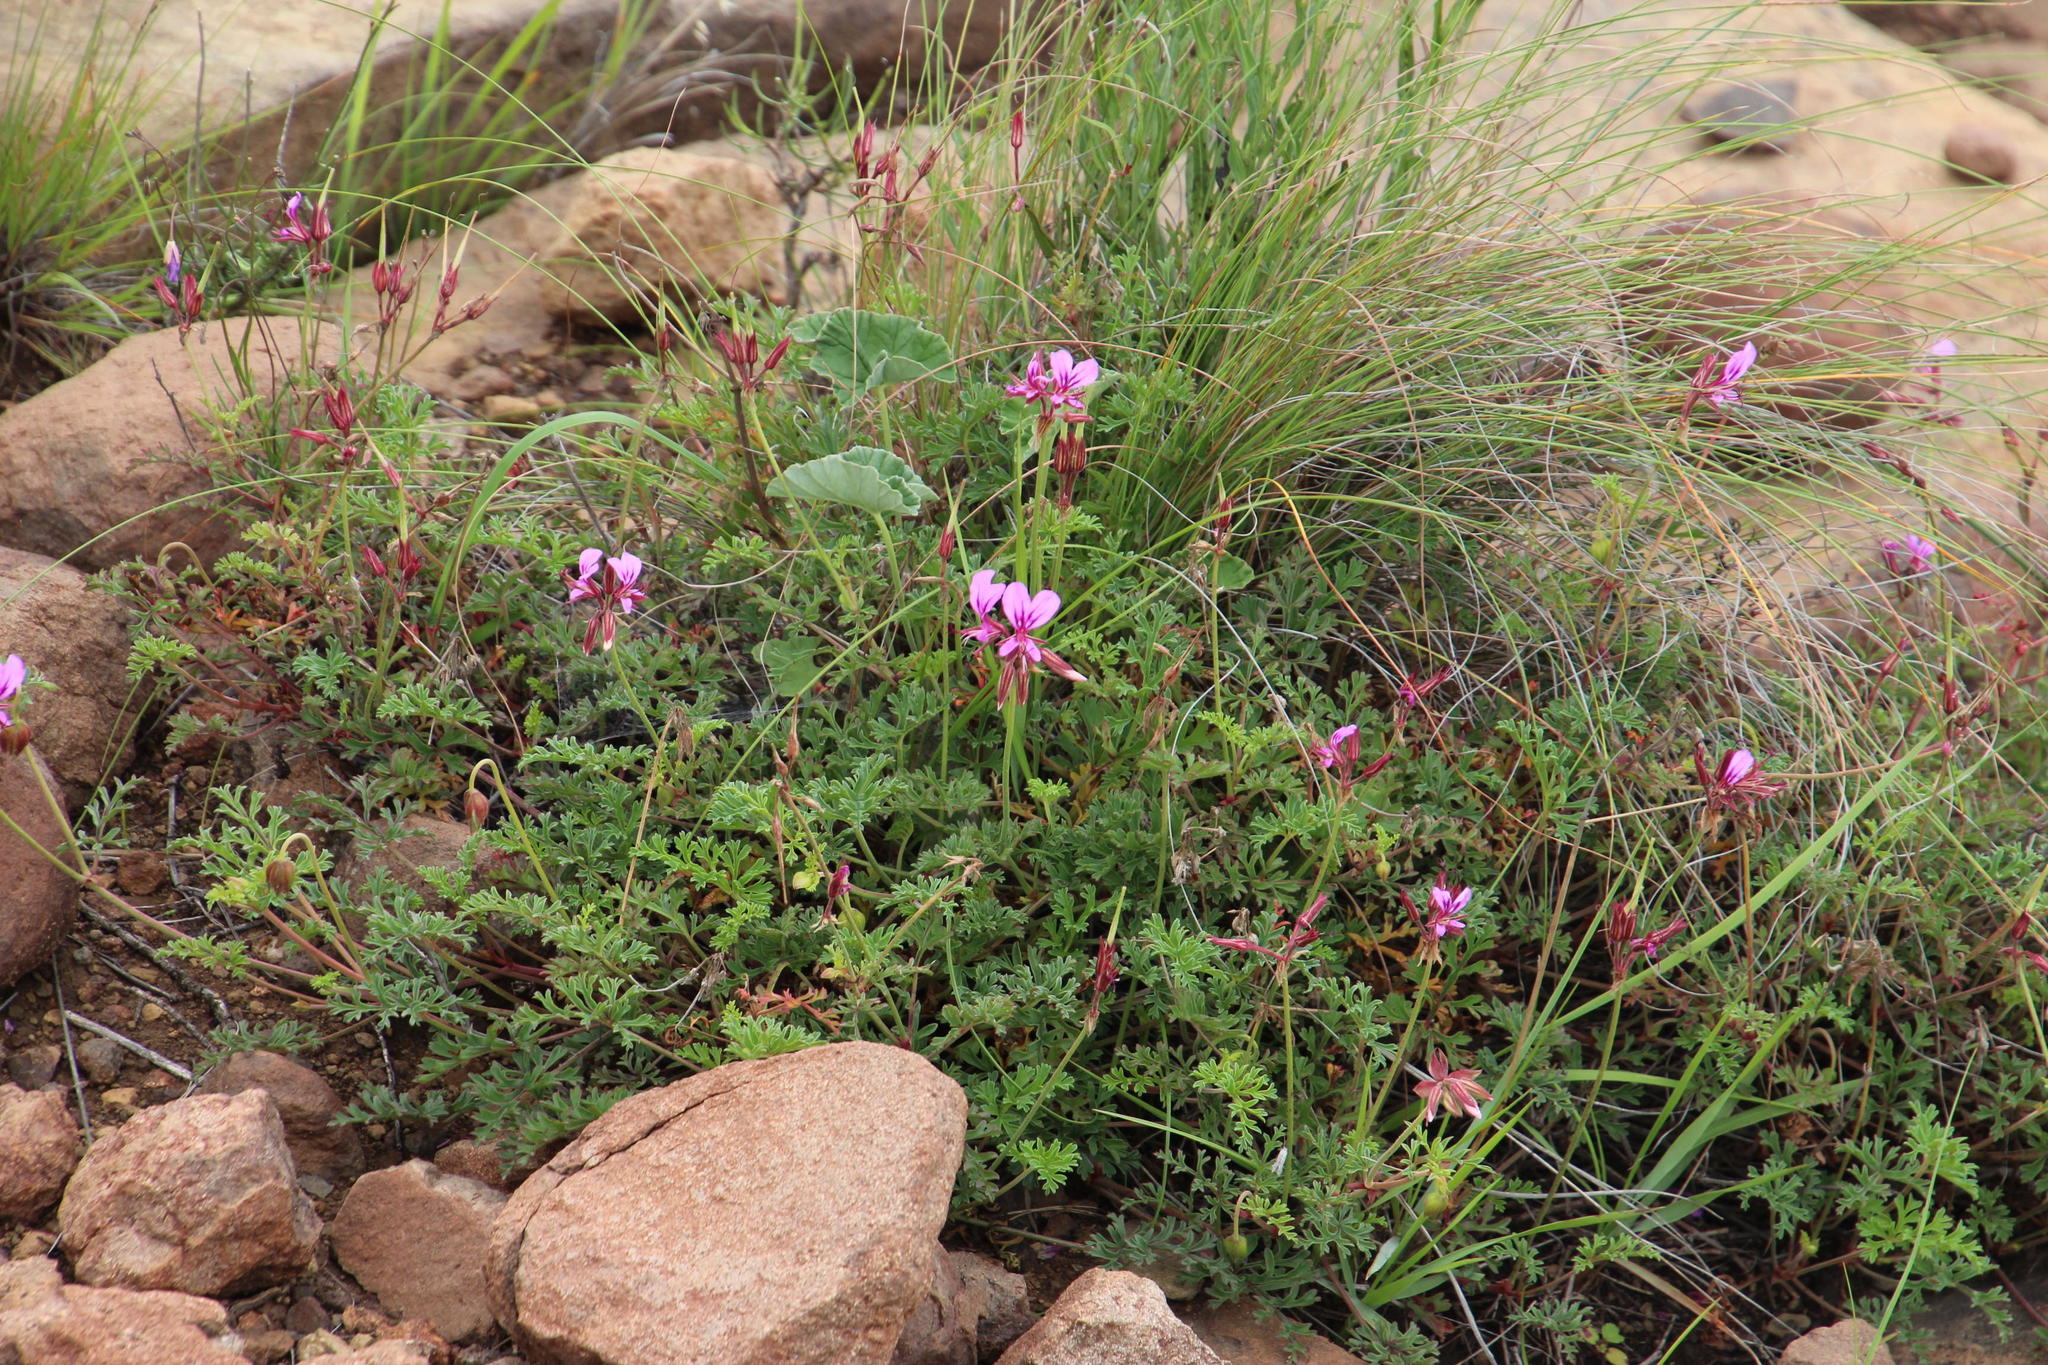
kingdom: Plantae
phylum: Tracheophyta
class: Magnoliopsida
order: Geraniales
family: Geraniaceae
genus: Pelargonium
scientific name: Pelargonium multicaule
